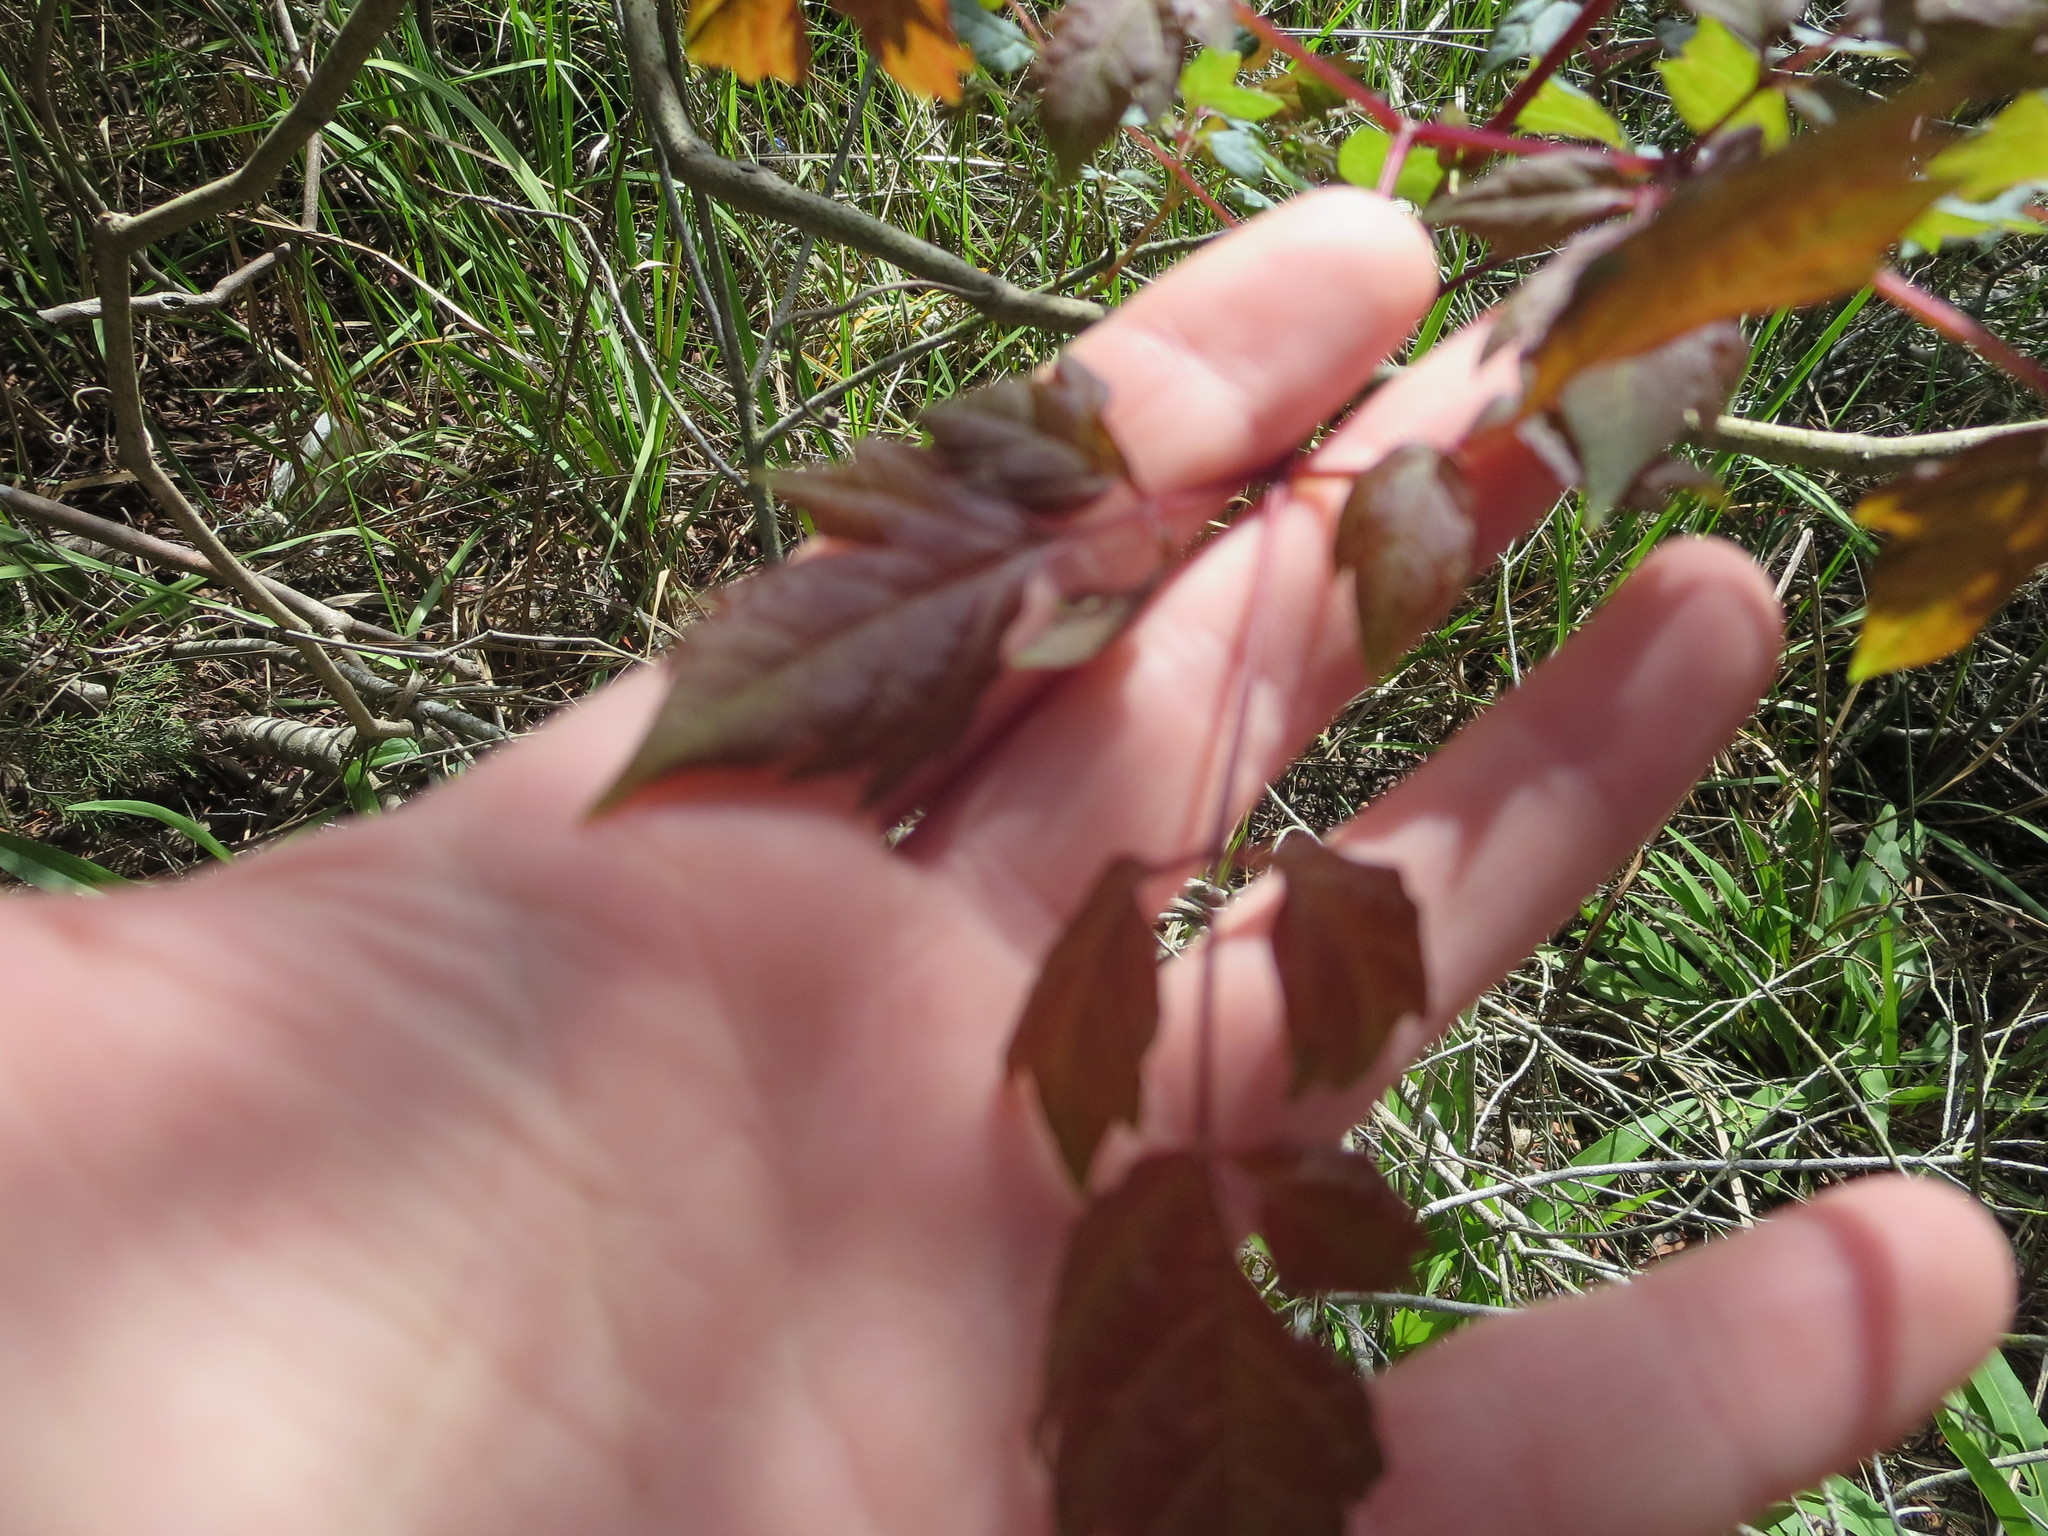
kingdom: Plantae
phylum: Tracheophyta
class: Magnoliopsida
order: Vitales
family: Vitaceae
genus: Nekemias
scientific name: Nekemias arborea
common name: Peppervine
